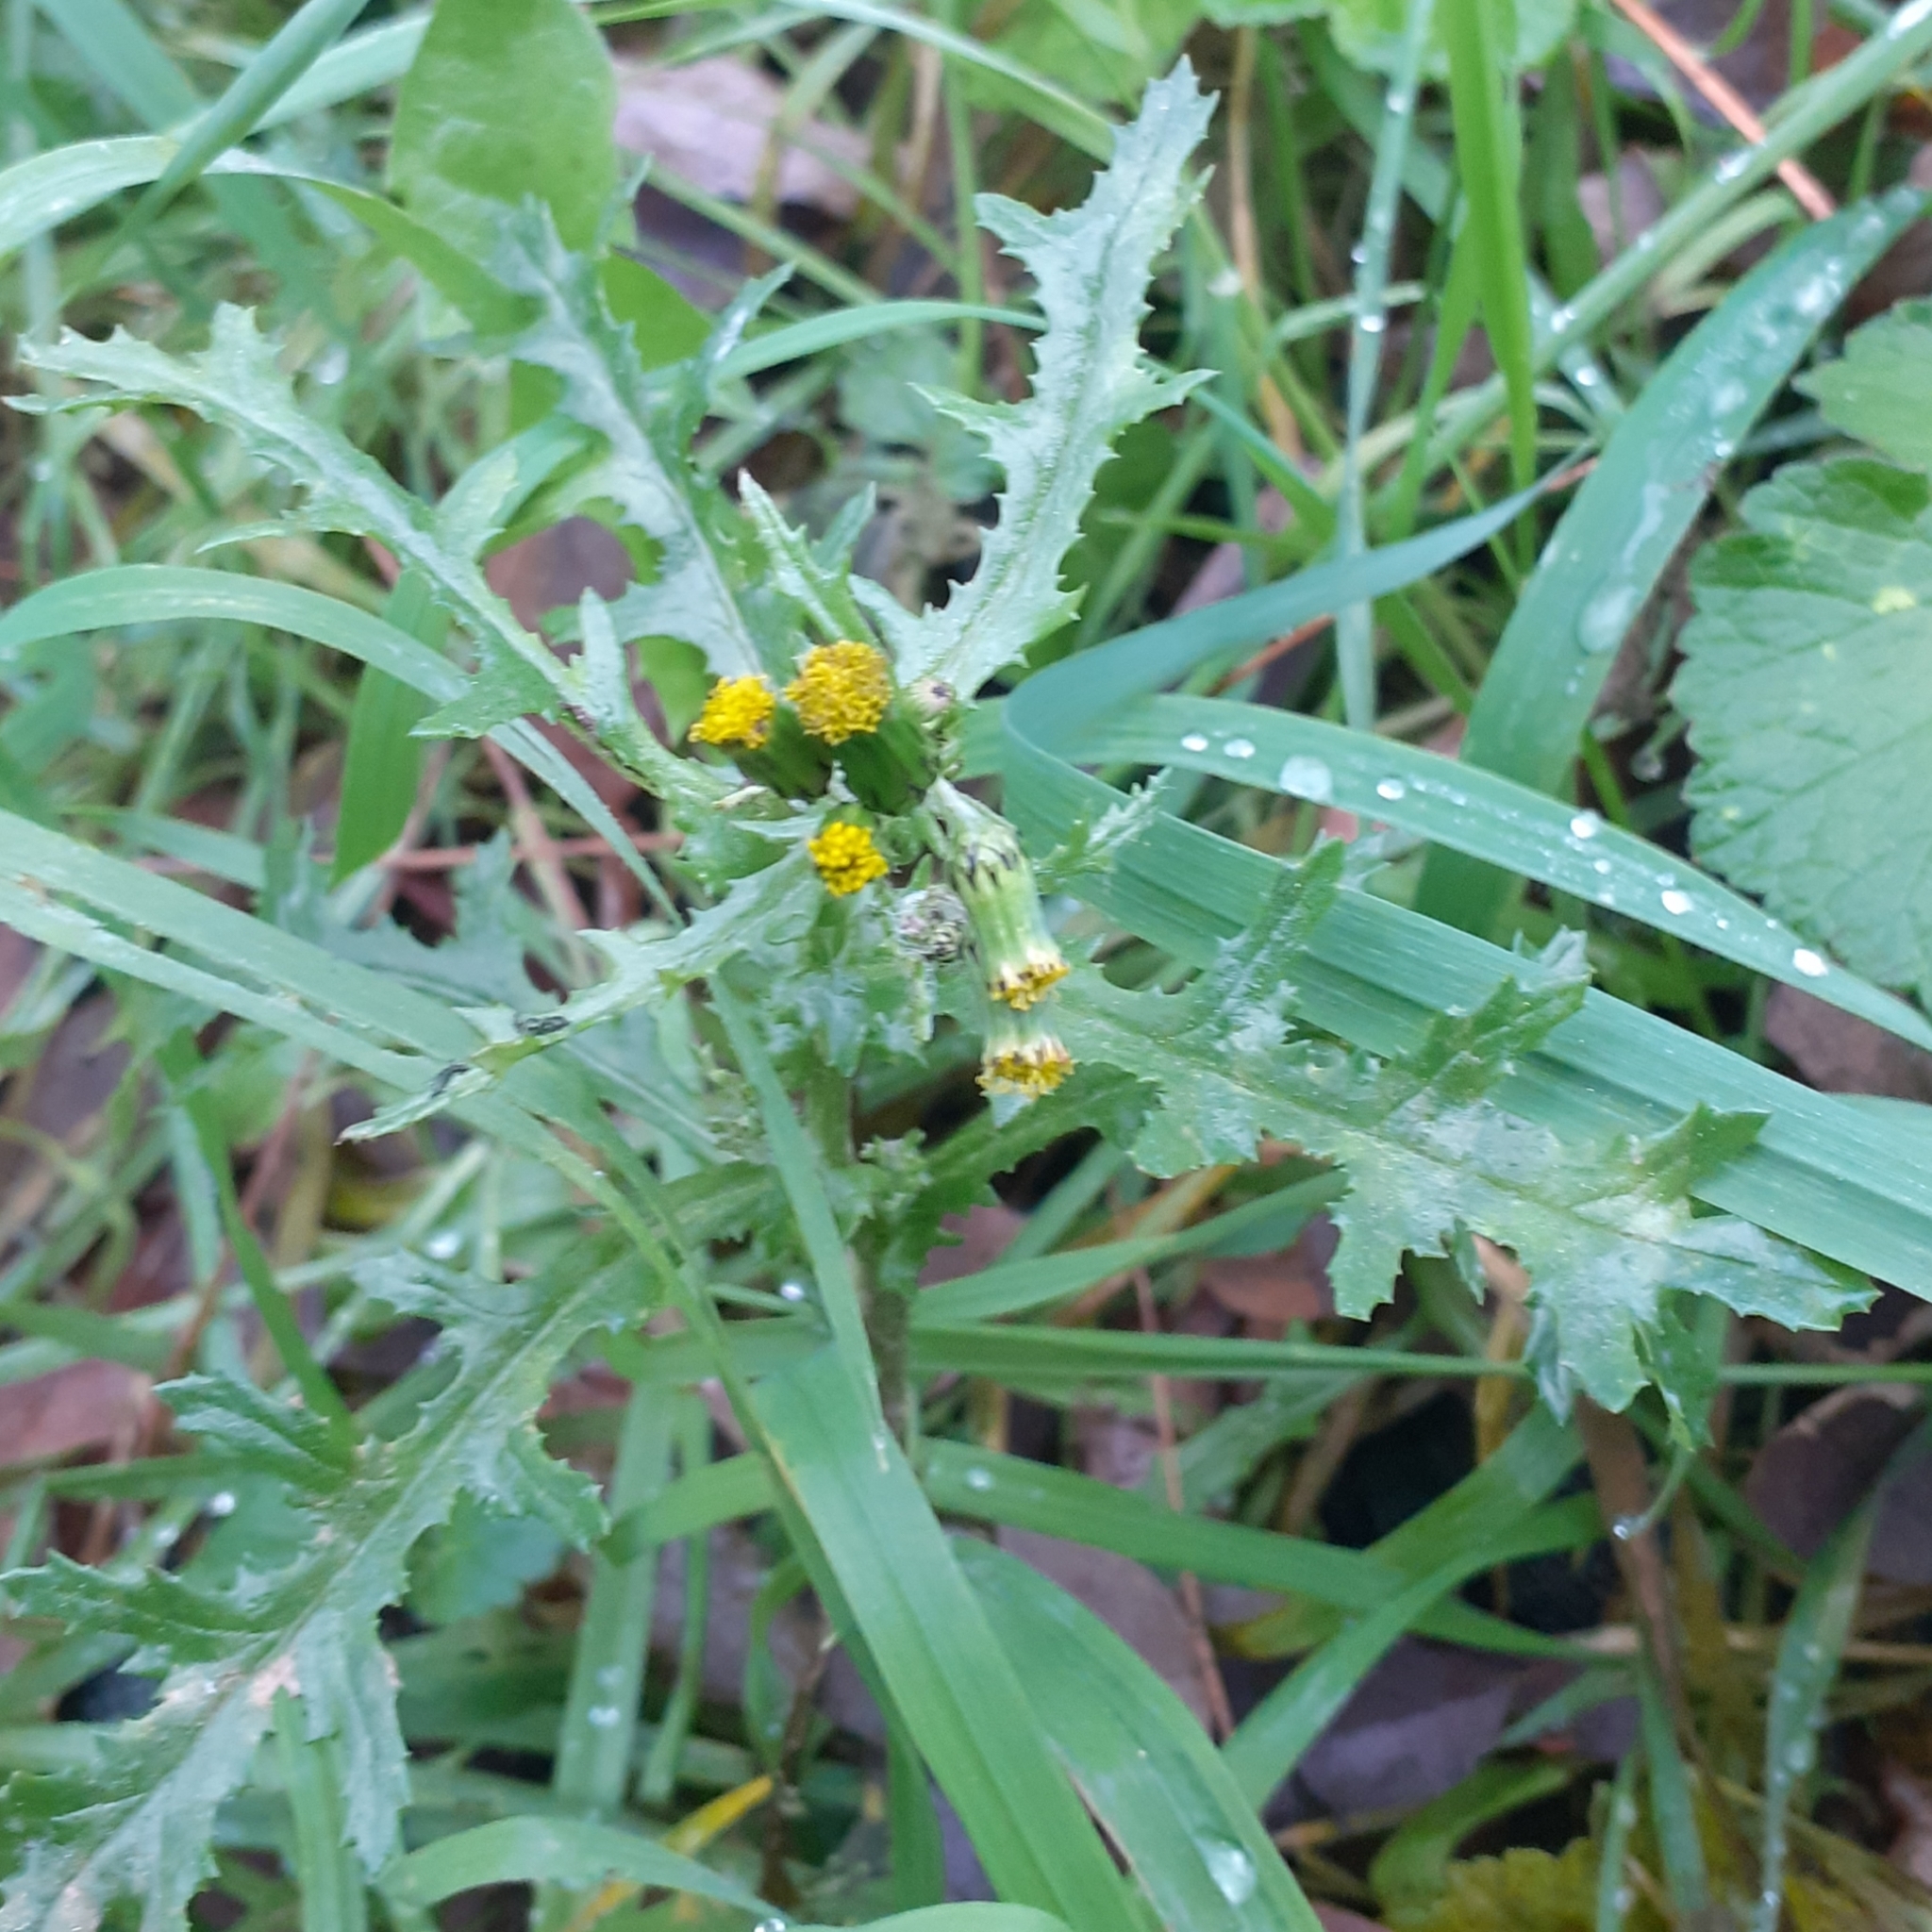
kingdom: Plantae
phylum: Tracheophyta
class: Magnoliopsida
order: Asterales
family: Asteraceae
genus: Senecio
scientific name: Senecio vulgaris
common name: Old-man-in-the-spring
